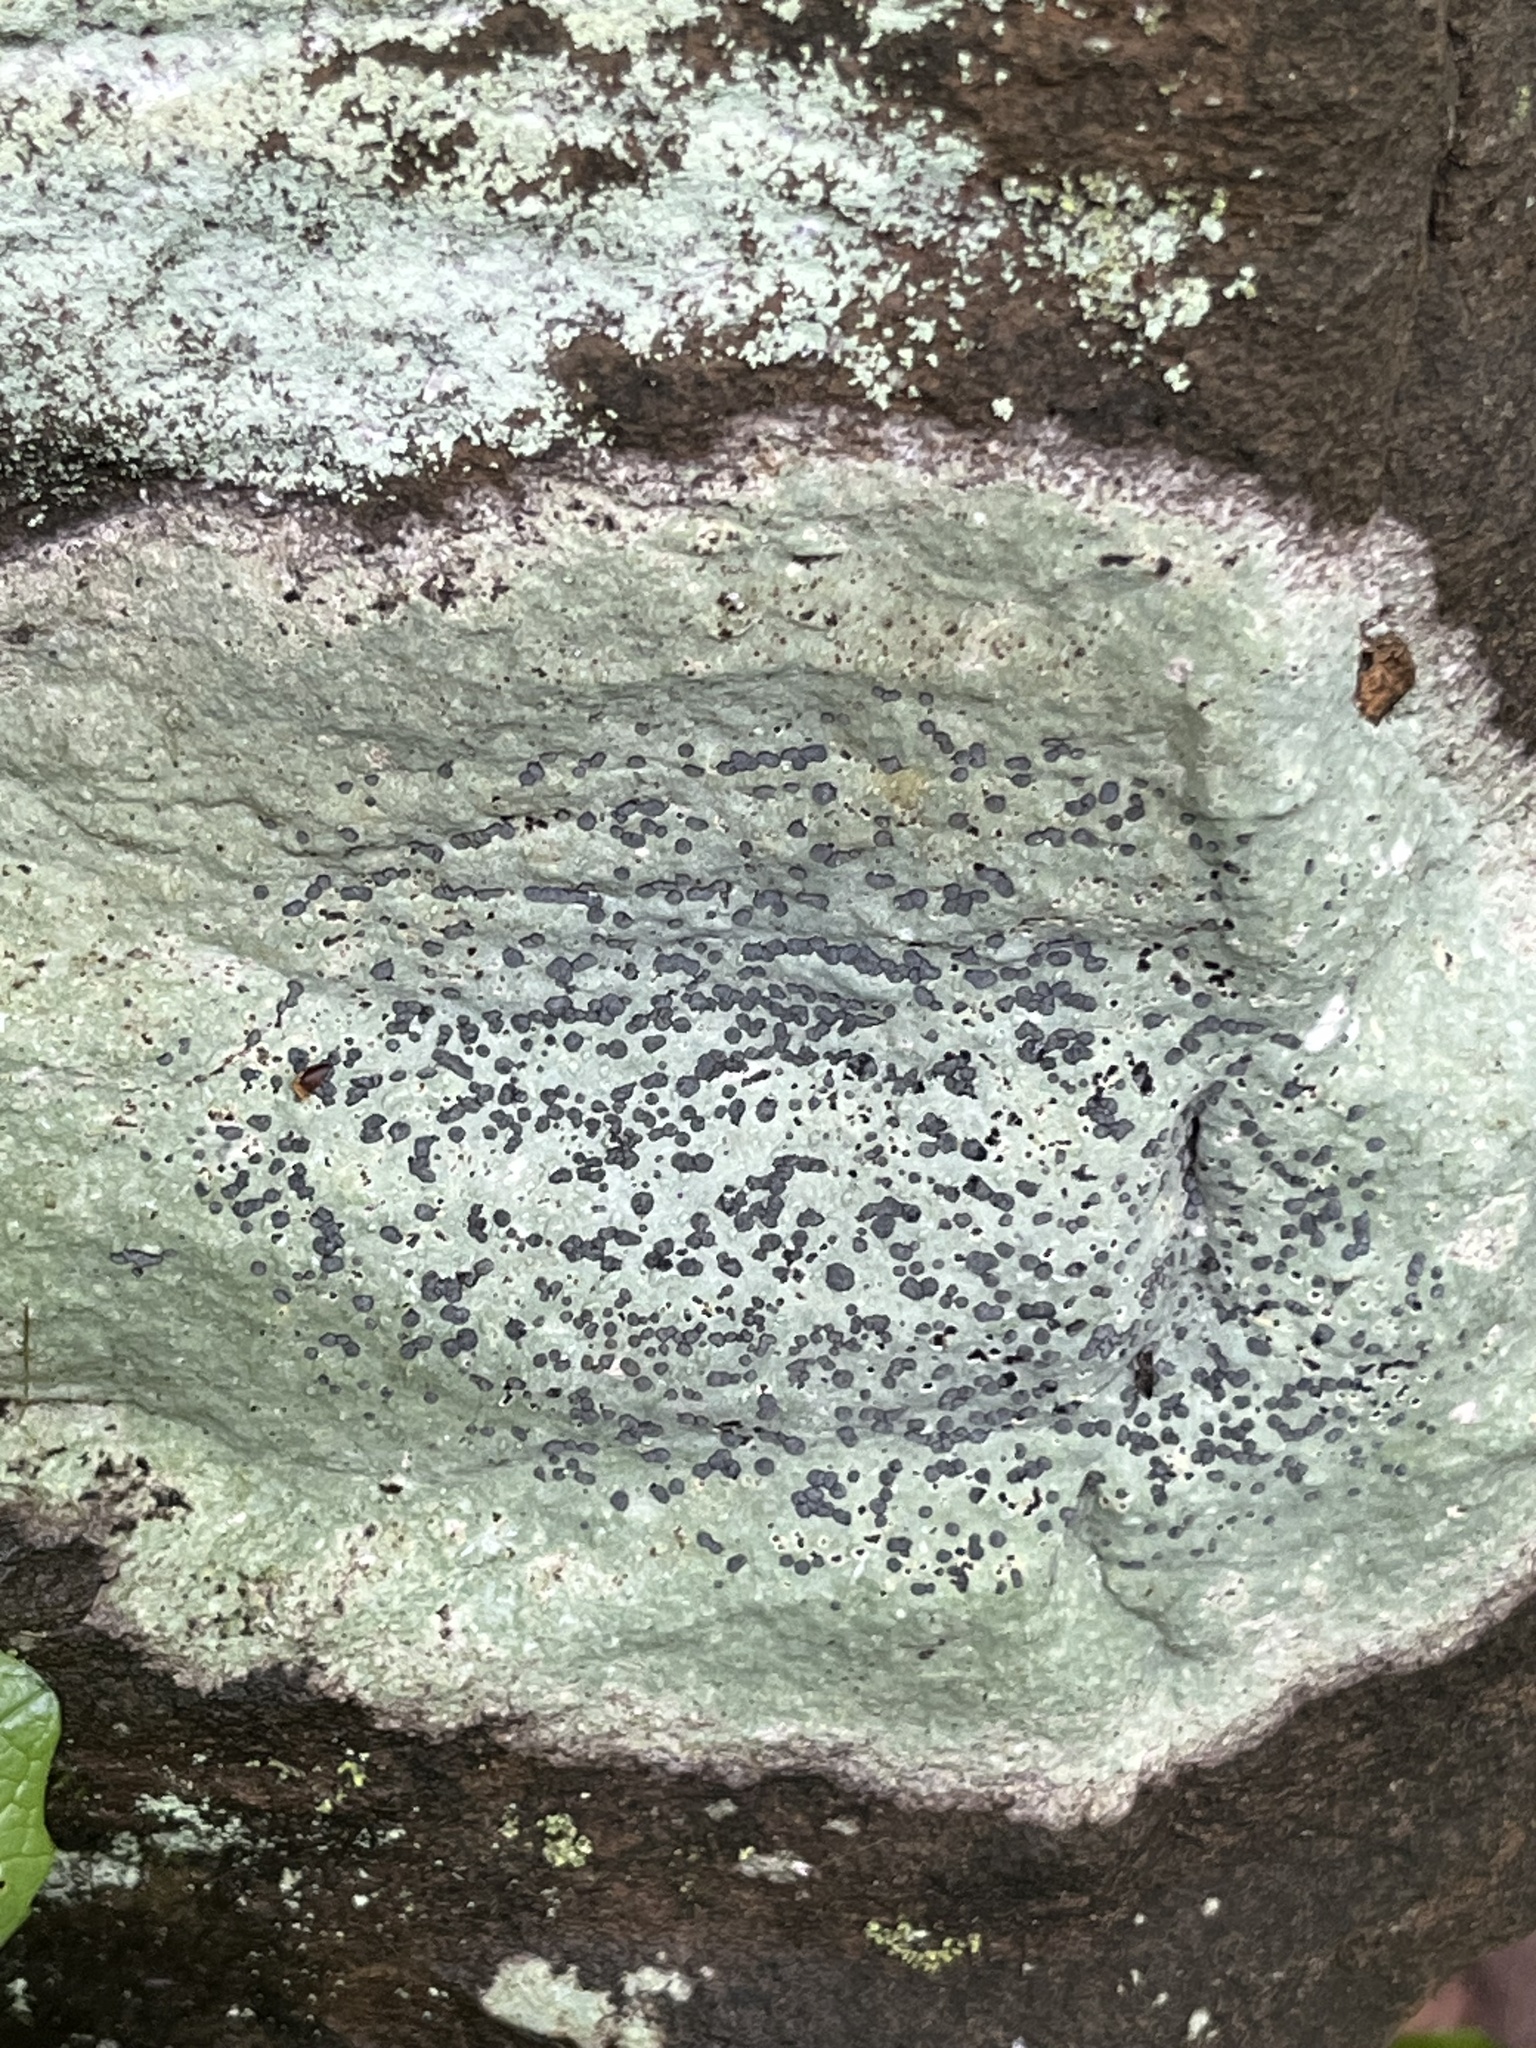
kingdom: Fungi
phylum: Ascomycota
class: Lecanoromycetes
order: Lecideales
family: Lecideaceae
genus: Porpidia
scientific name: Porpidia albocaerulescens
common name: Smokey-eyed boulder lichen
